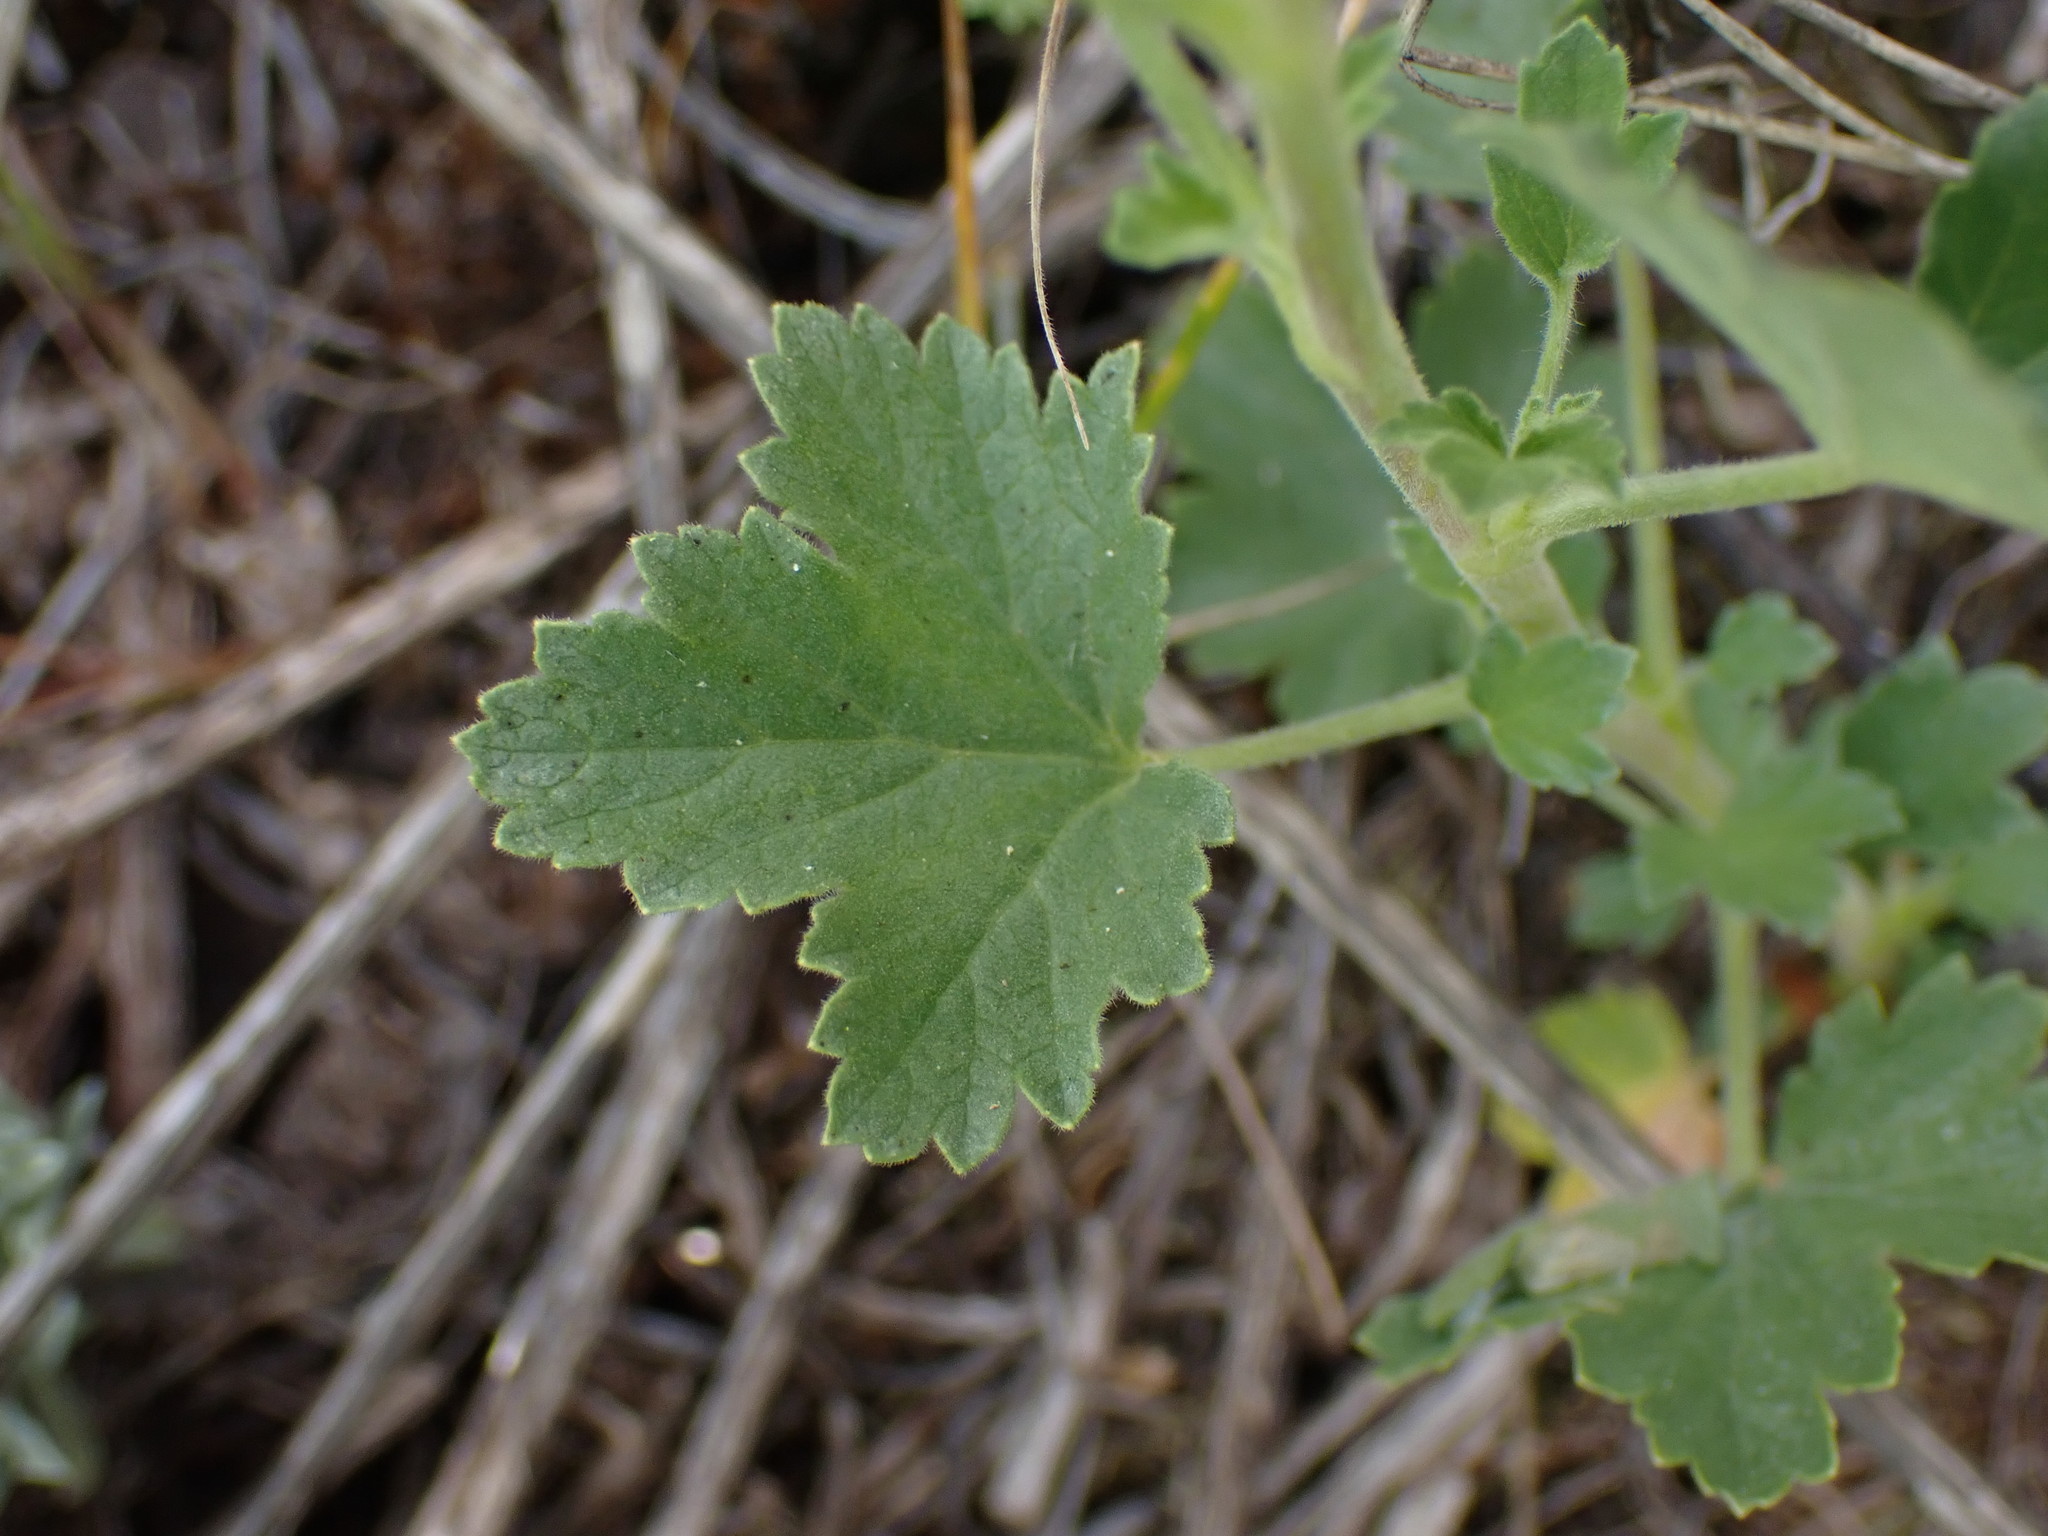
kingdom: Plantae
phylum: Tracheophyta
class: Magnoliopsida
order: Saxifragales
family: Grossulariaceae
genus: Ribes
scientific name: Ribes cereum
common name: Wax currant
